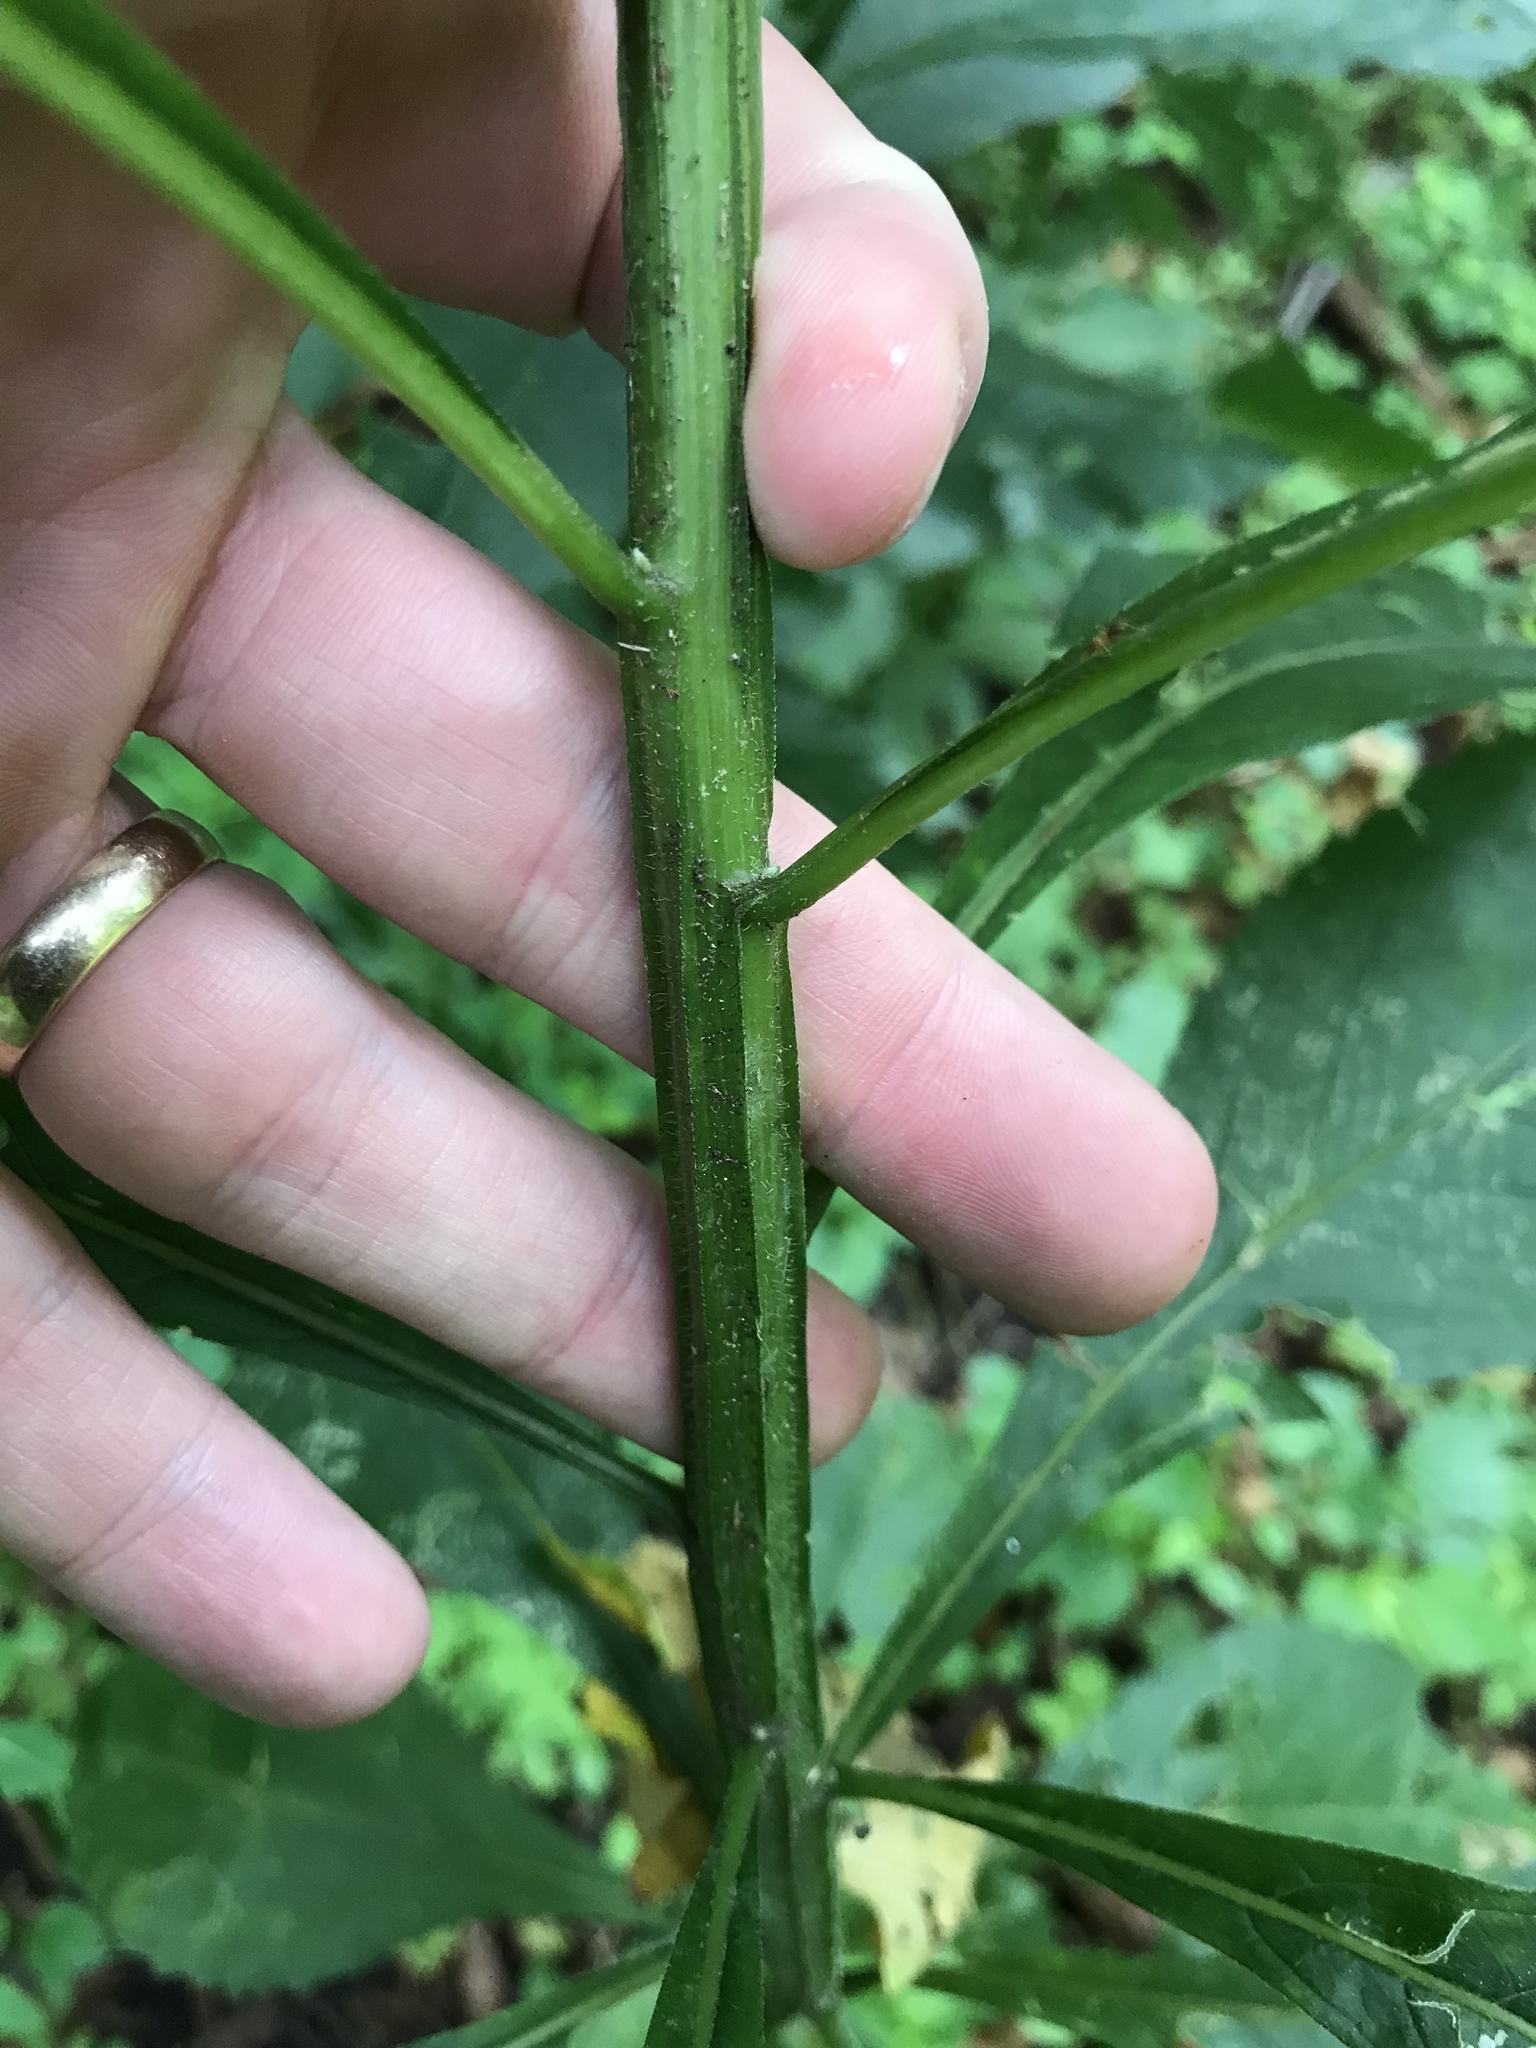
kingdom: Plantae
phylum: Tracheophyta
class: Magnoliopsida
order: Asterales
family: Asteraceae
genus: Verbesina
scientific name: Verbesina alternifolia
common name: Wingstem
